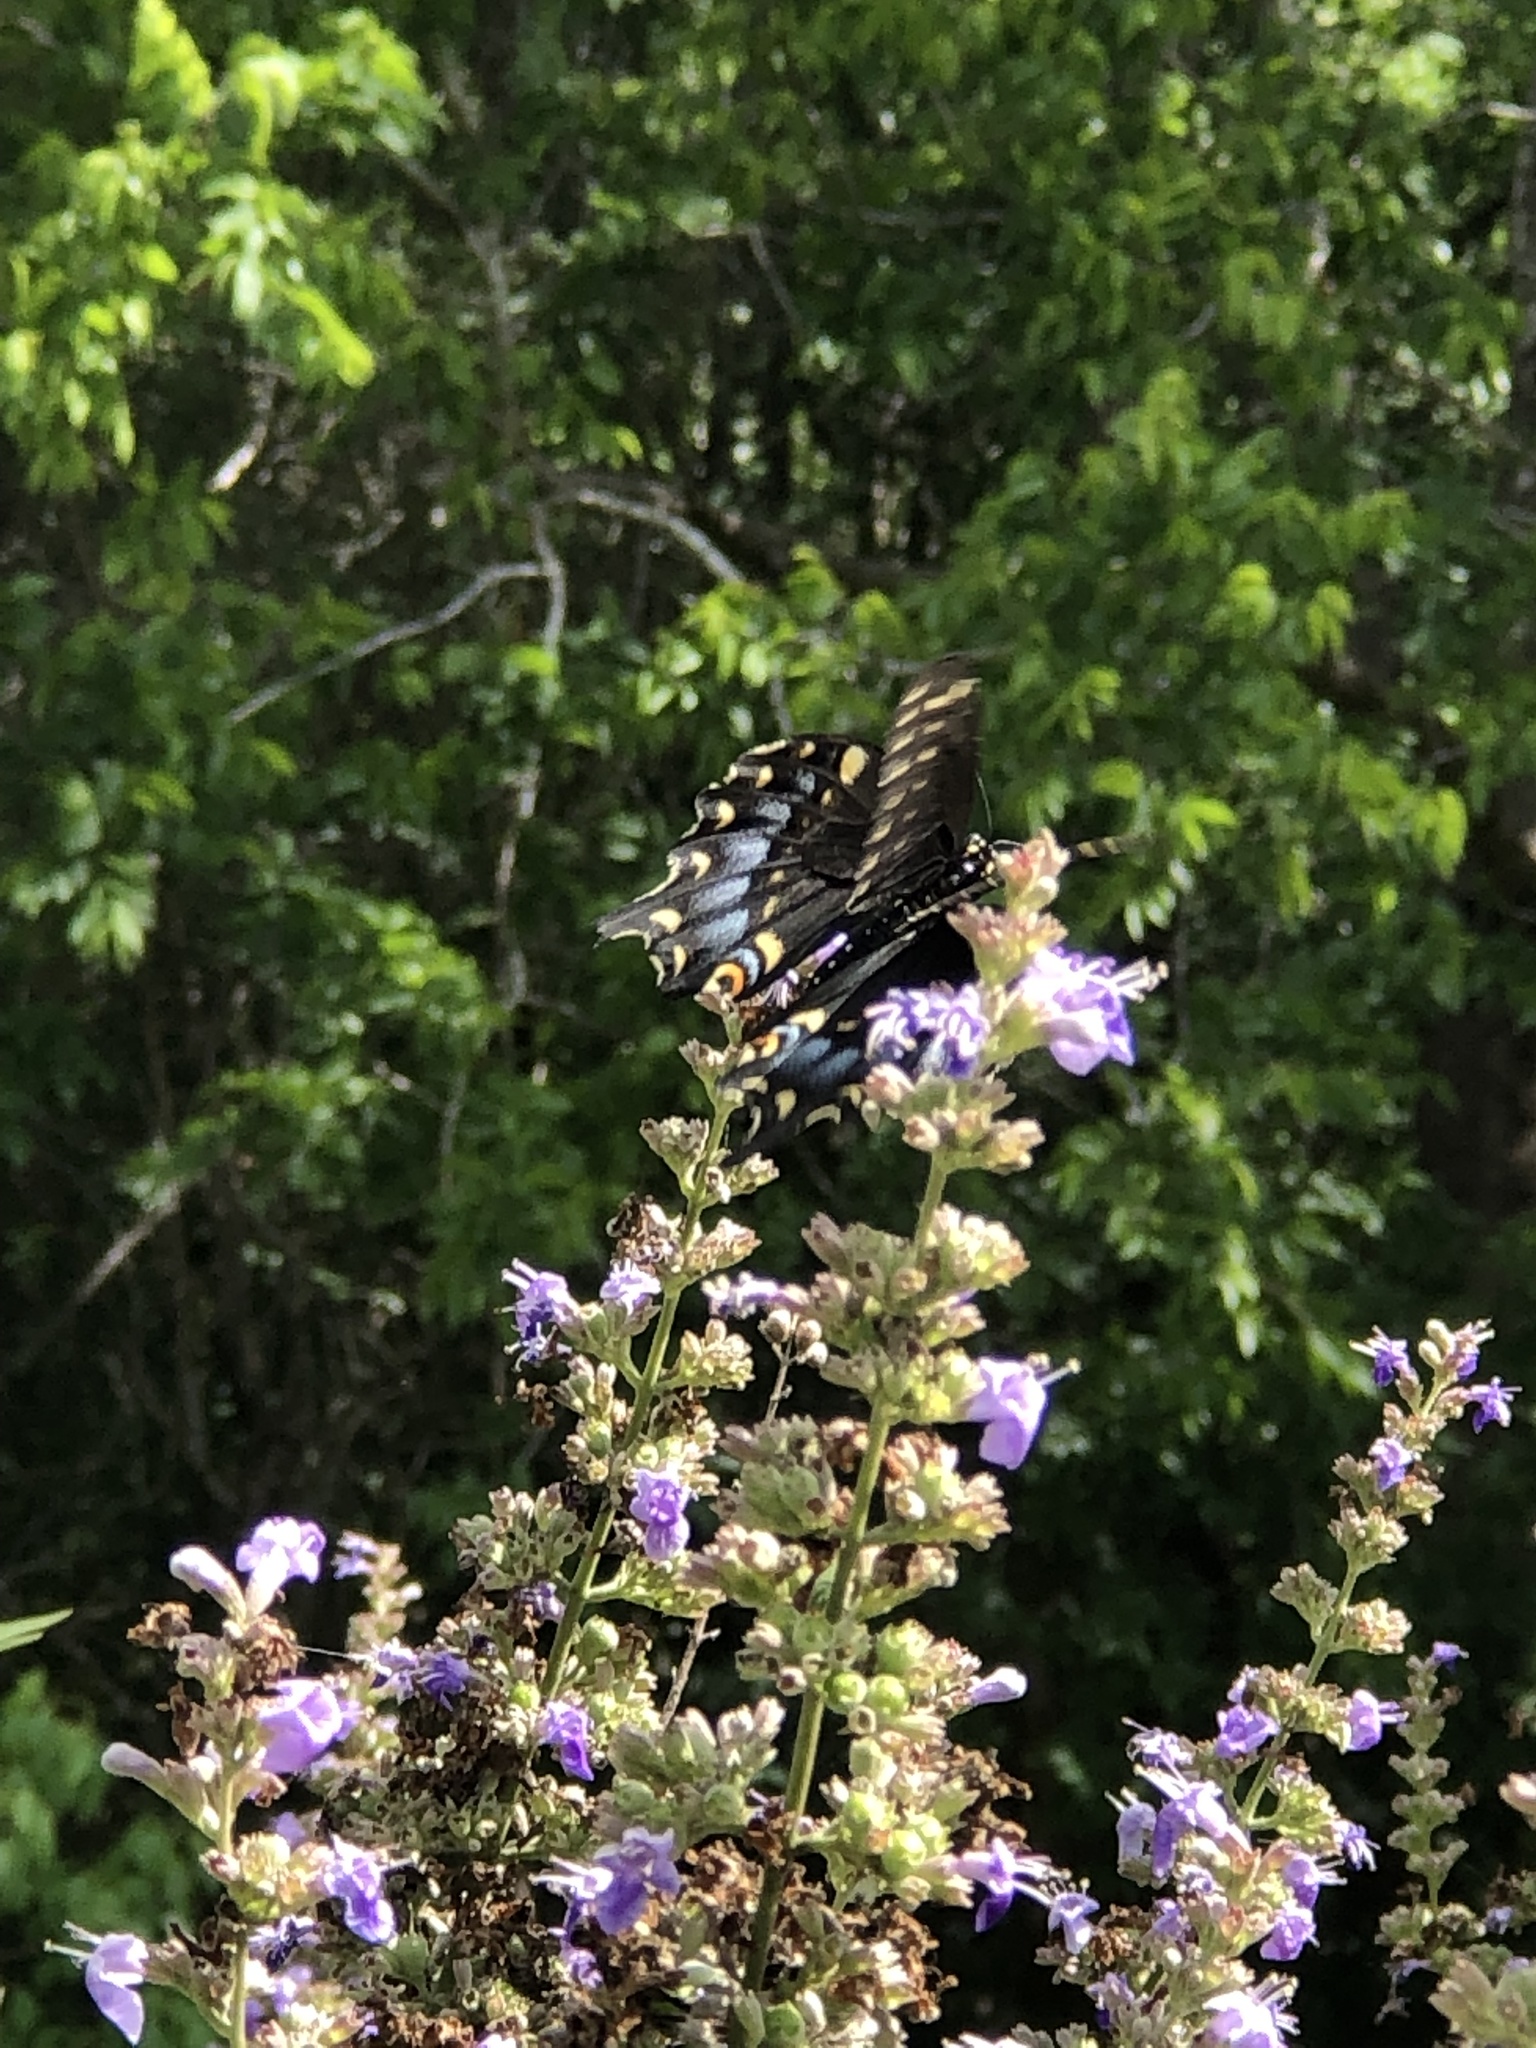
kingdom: Animalia
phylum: Arthropoda
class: Insecta
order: Lepidoptera
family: Papilionidae
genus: Papilio
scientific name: Papilio polyxenes
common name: Black swallowtail
